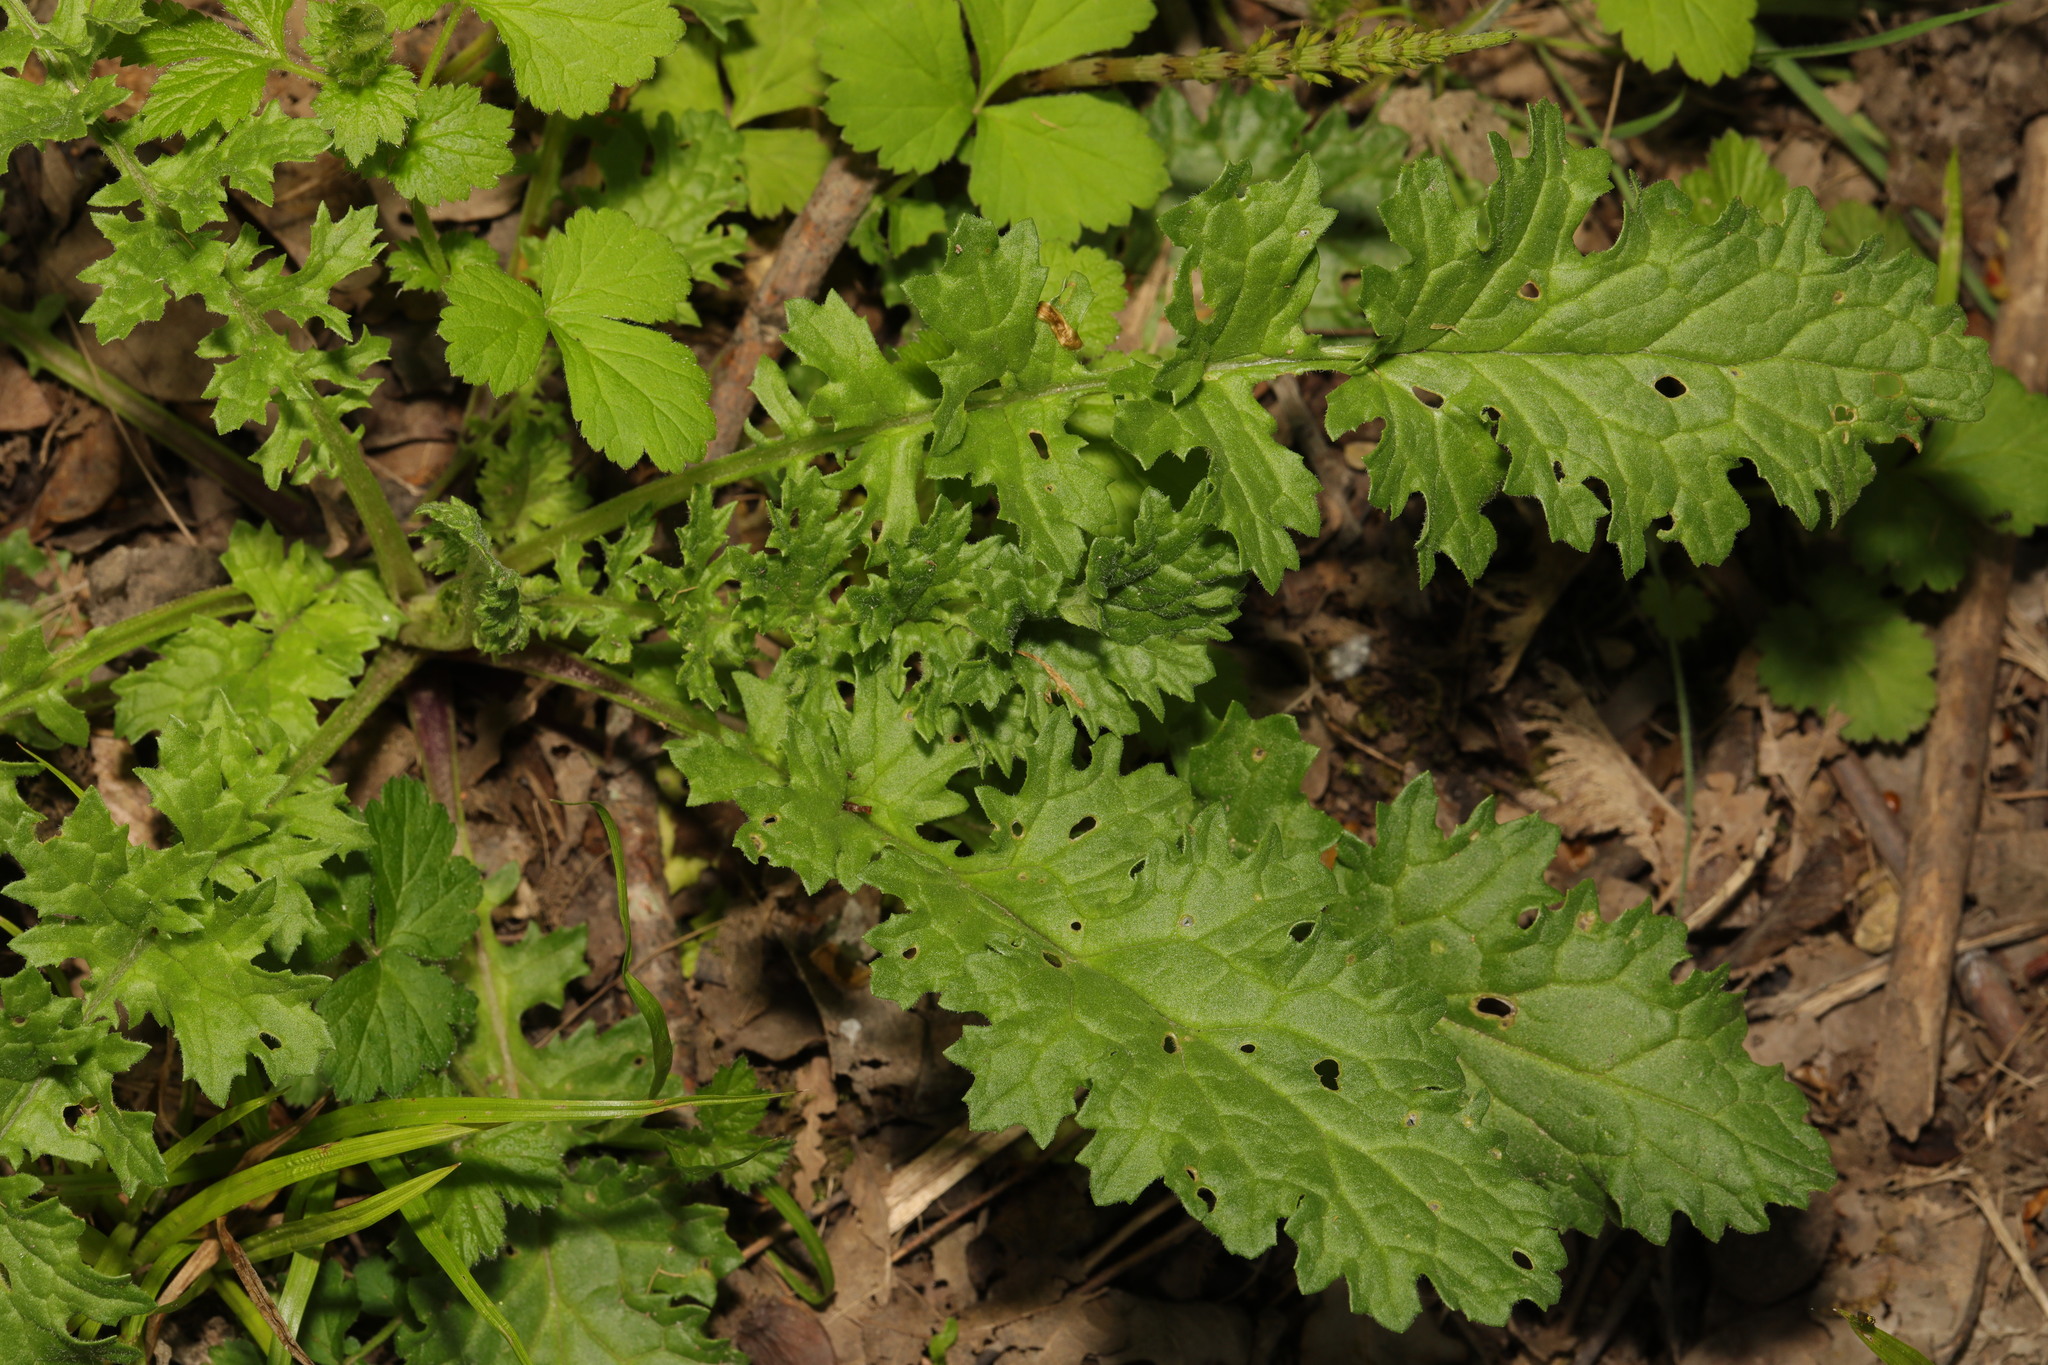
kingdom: Plantae
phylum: Tracheophyta
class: Magnoliopsida
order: Asterales
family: Asteraceae
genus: Jacobaea
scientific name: Jacobaea vulgaris
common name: Stinking willie
